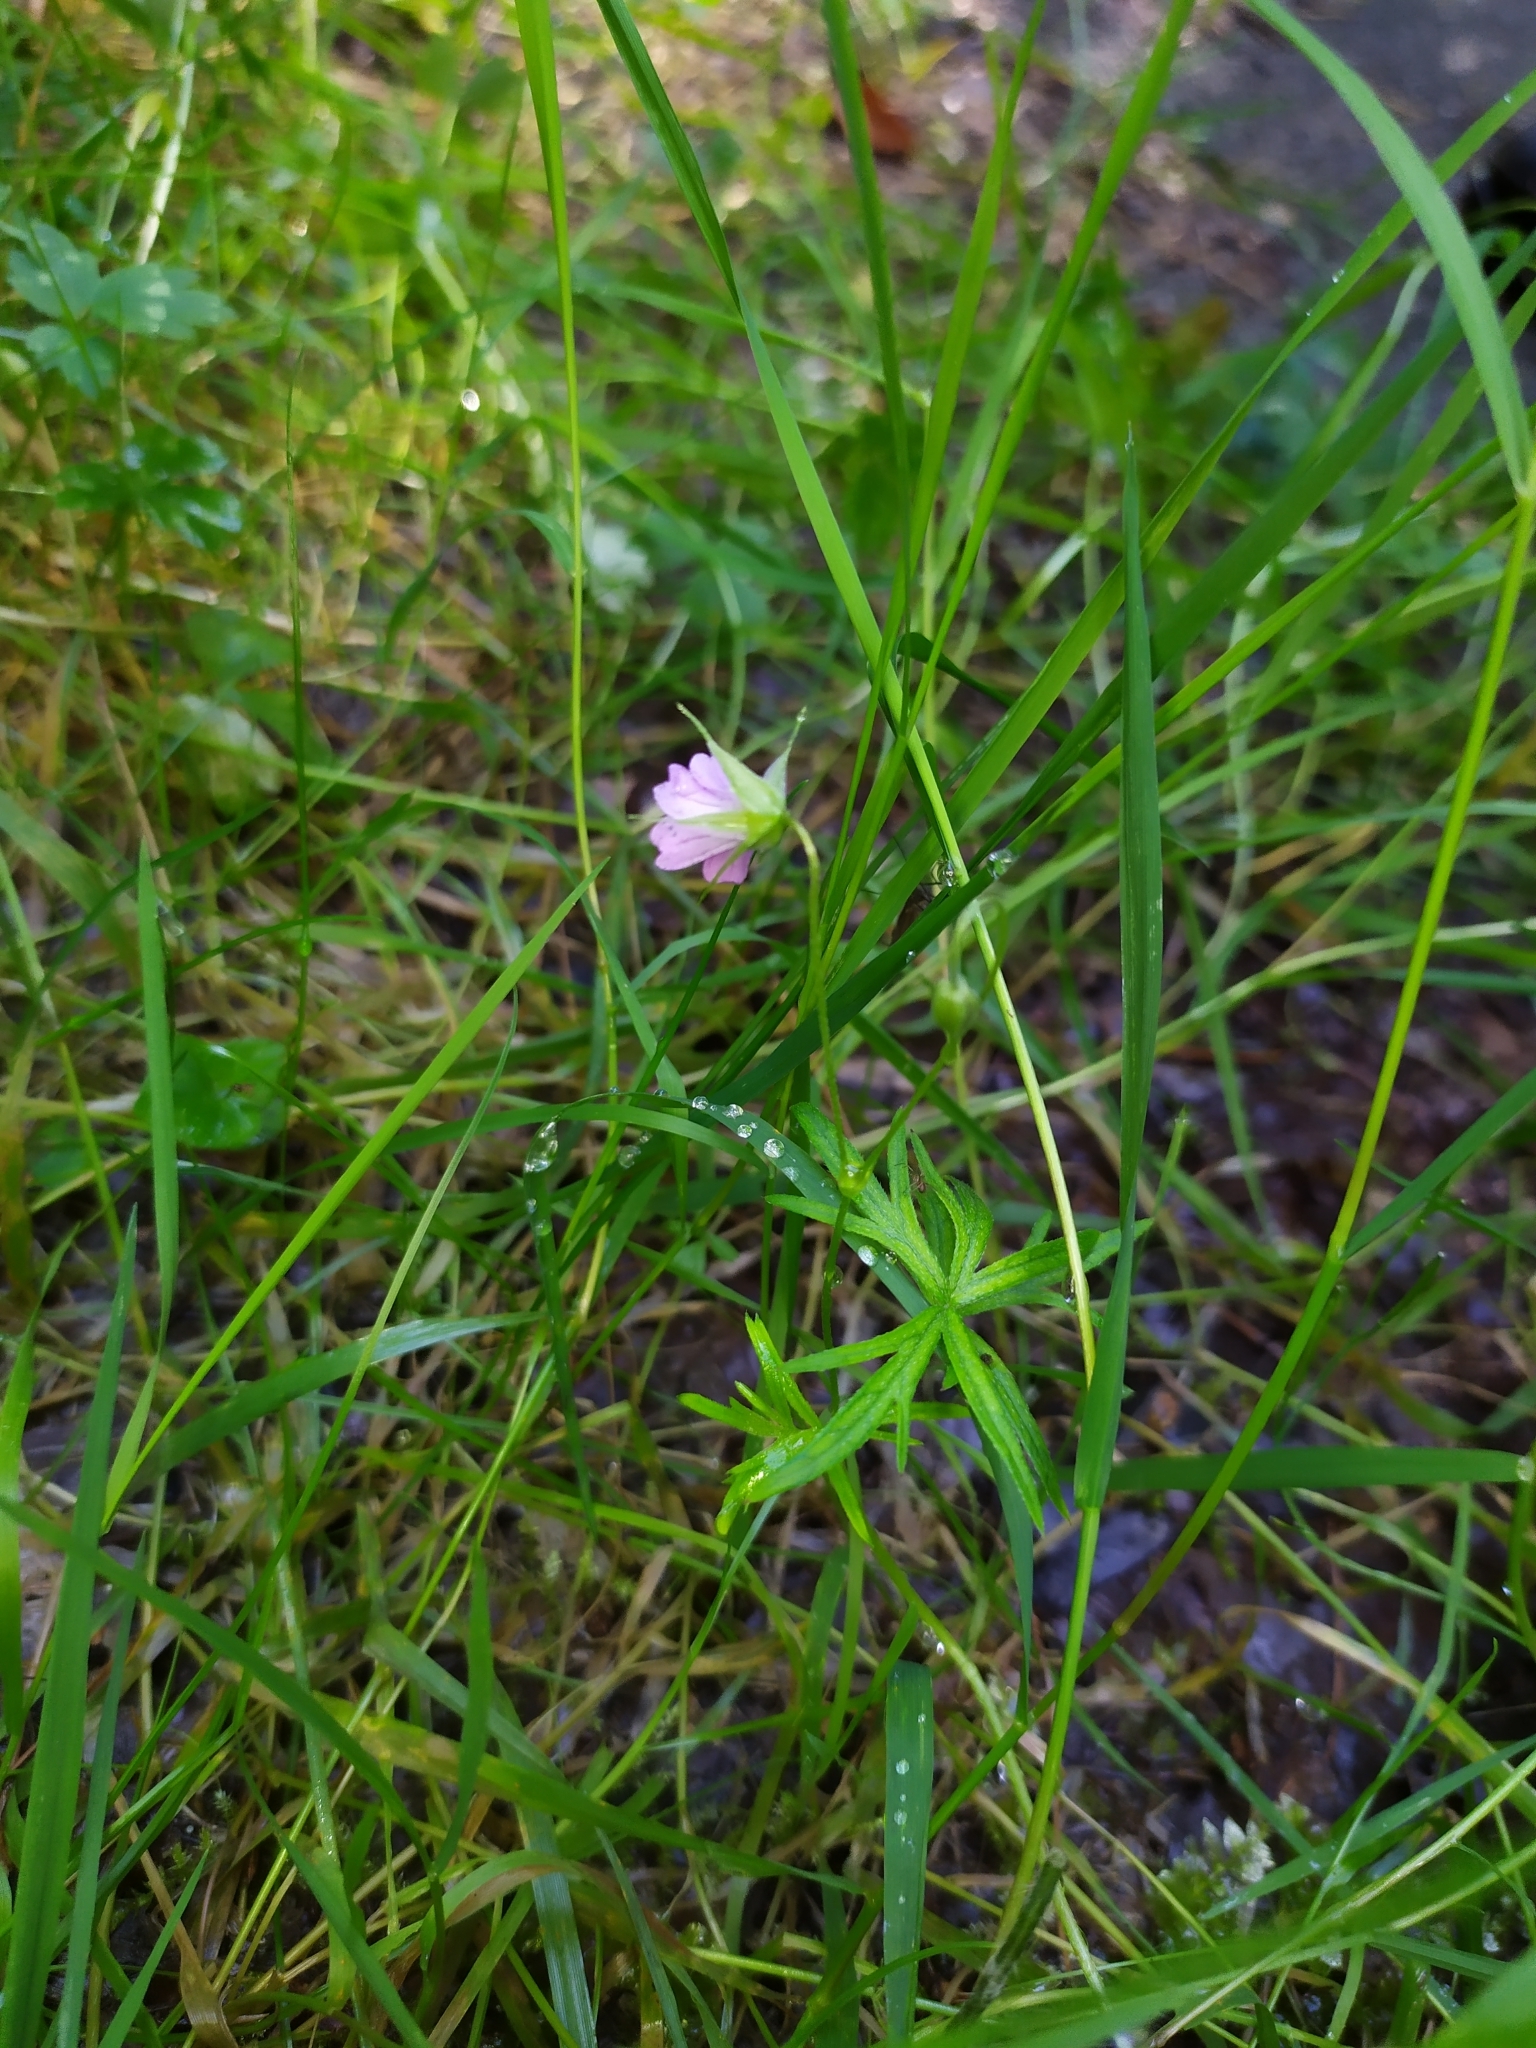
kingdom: Plantae
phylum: Tracheophyta
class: Magnoliopsida
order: Geraniales
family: Geraniaceae
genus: Geranium
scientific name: Geranium columbinum
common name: Long-stalked crane's-bill
